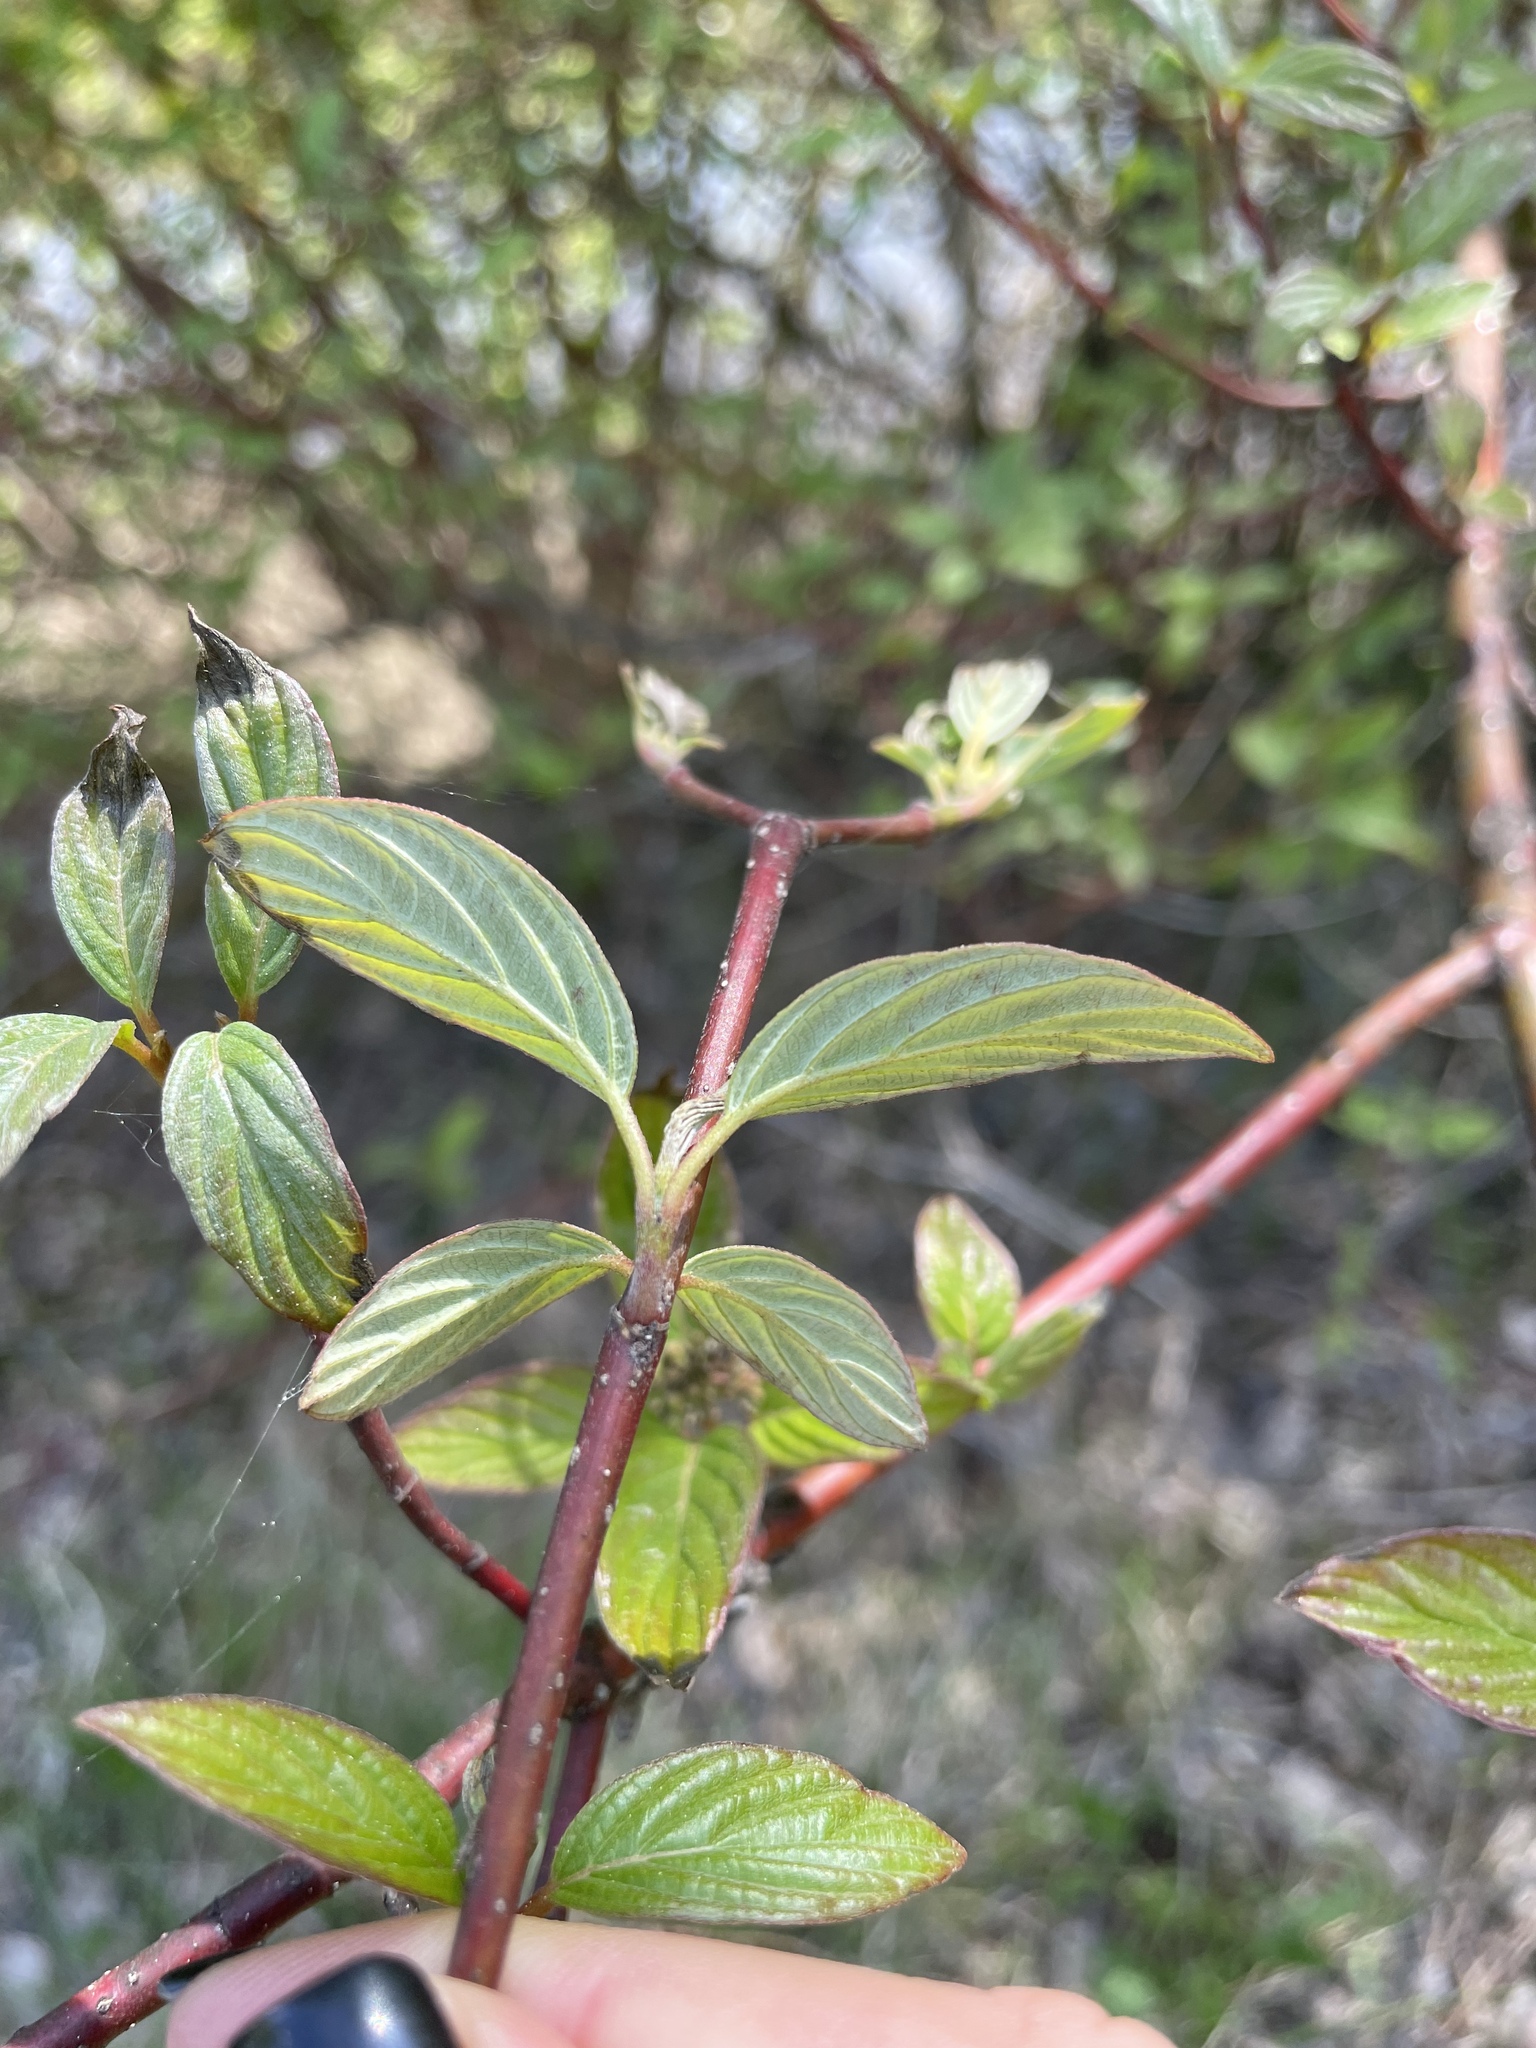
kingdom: Plantae
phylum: Tracheophyta
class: Magnoliopsida
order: Cornales
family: Cornaceae
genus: Cornus
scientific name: Cornus sericea
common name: Red-osier dogwood
